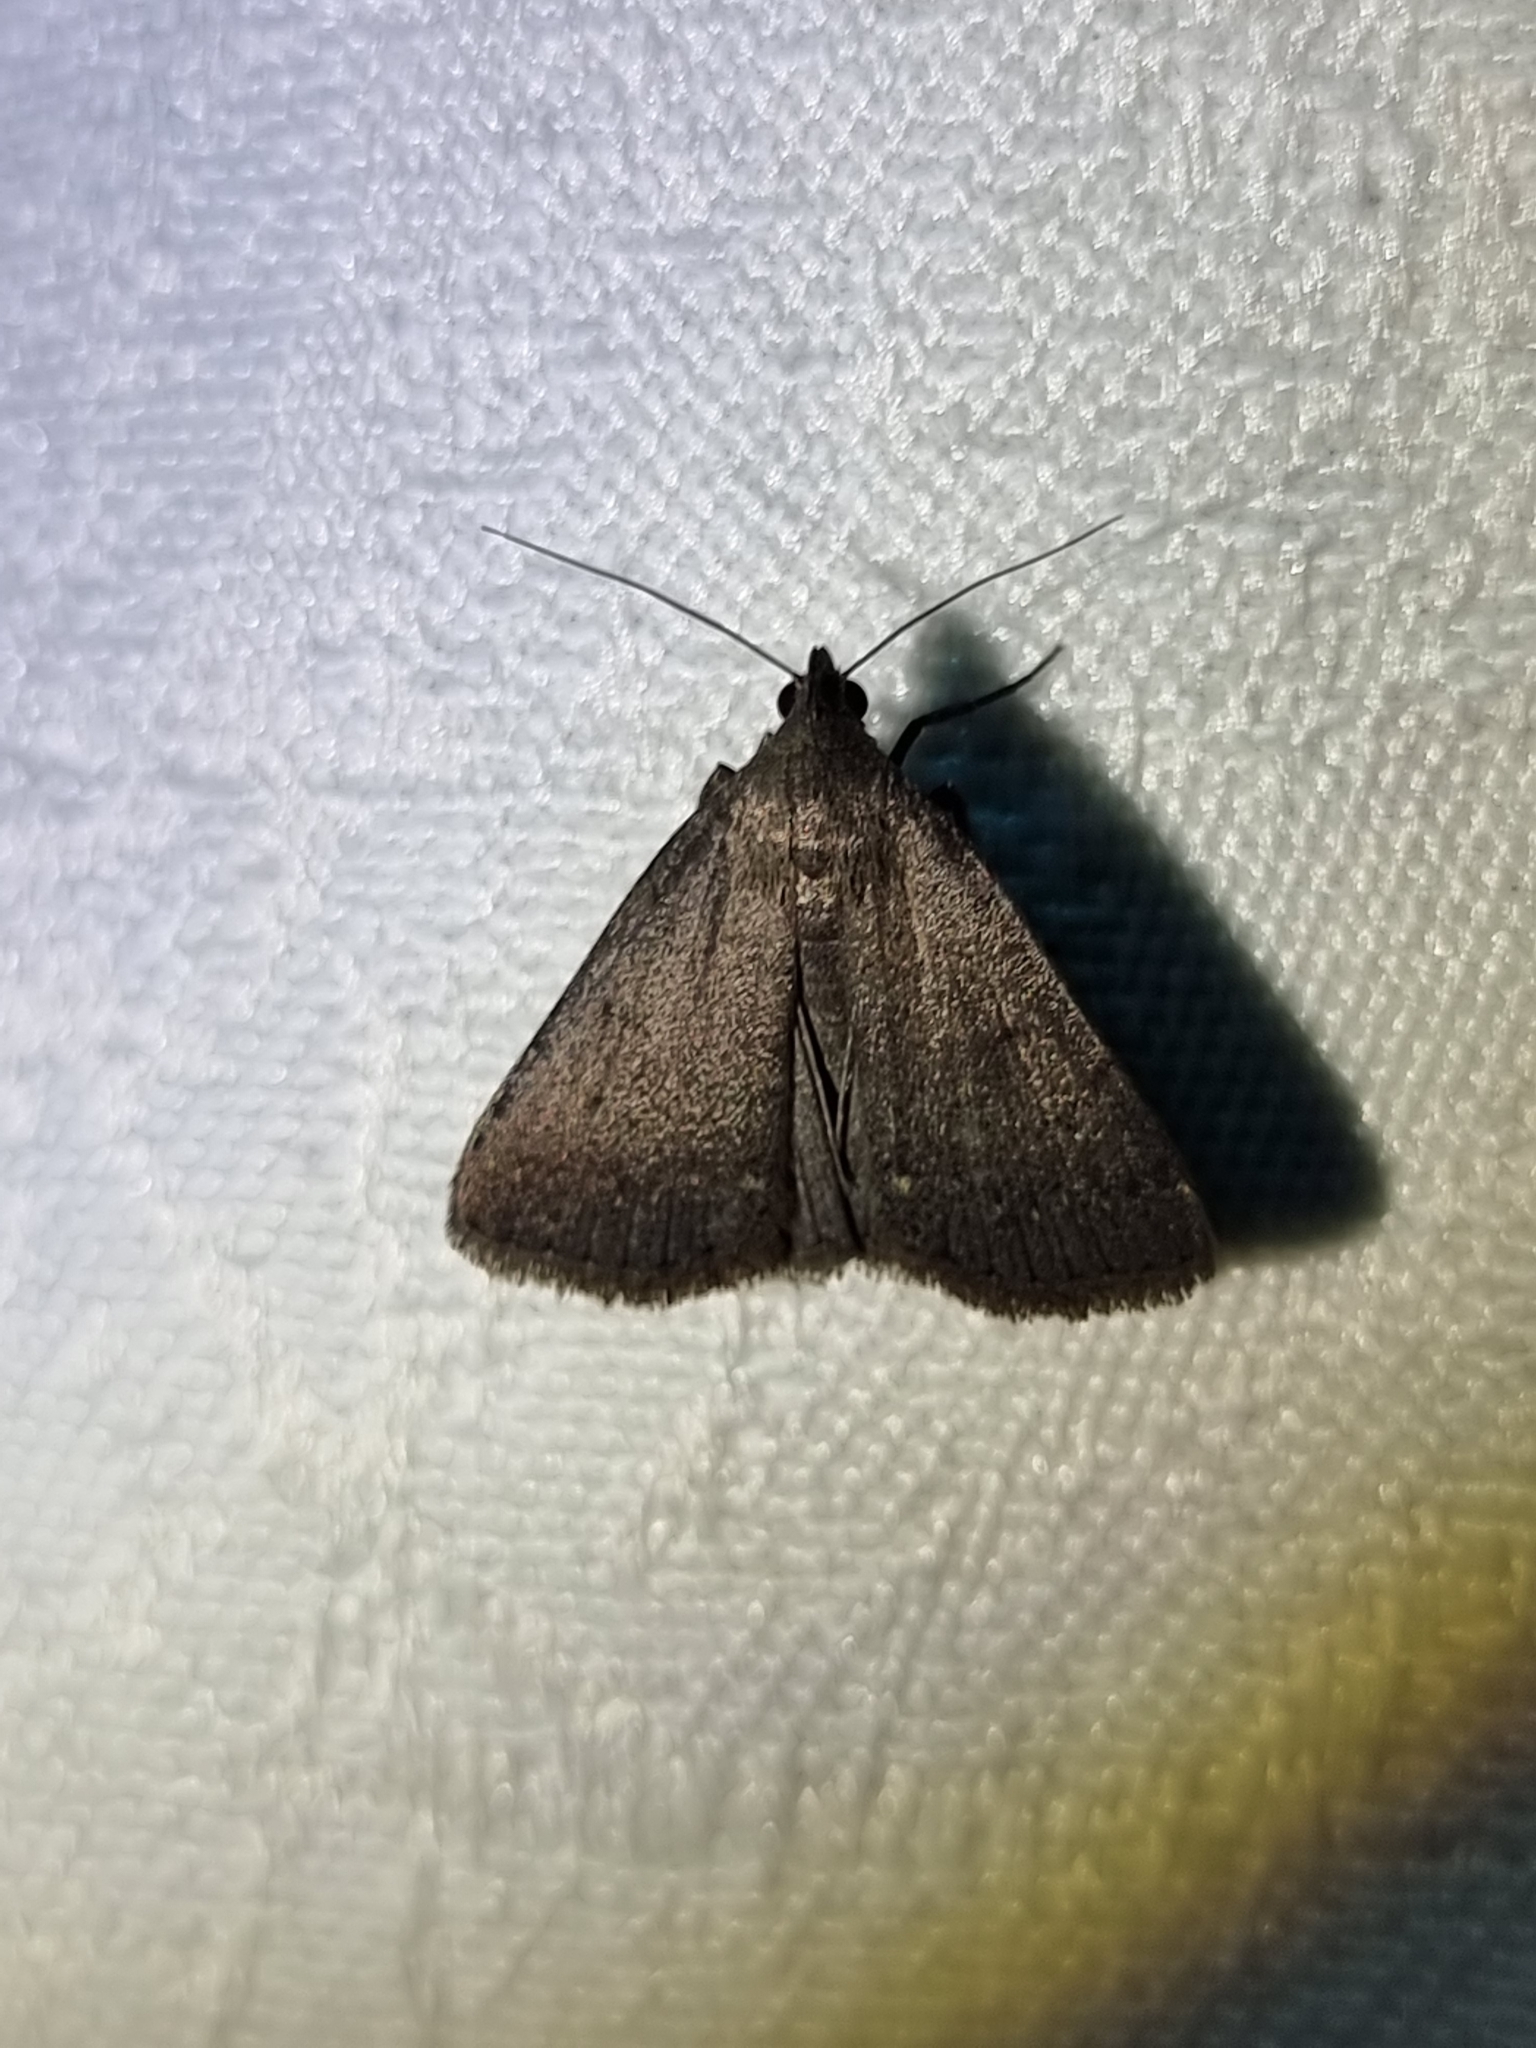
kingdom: Animalia
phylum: Arthropoda
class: Insecta
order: Lepidoptera
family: Erebidae
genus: Simplicia
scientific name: Simplicia cornicalis
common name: Tiki hut litter moth
